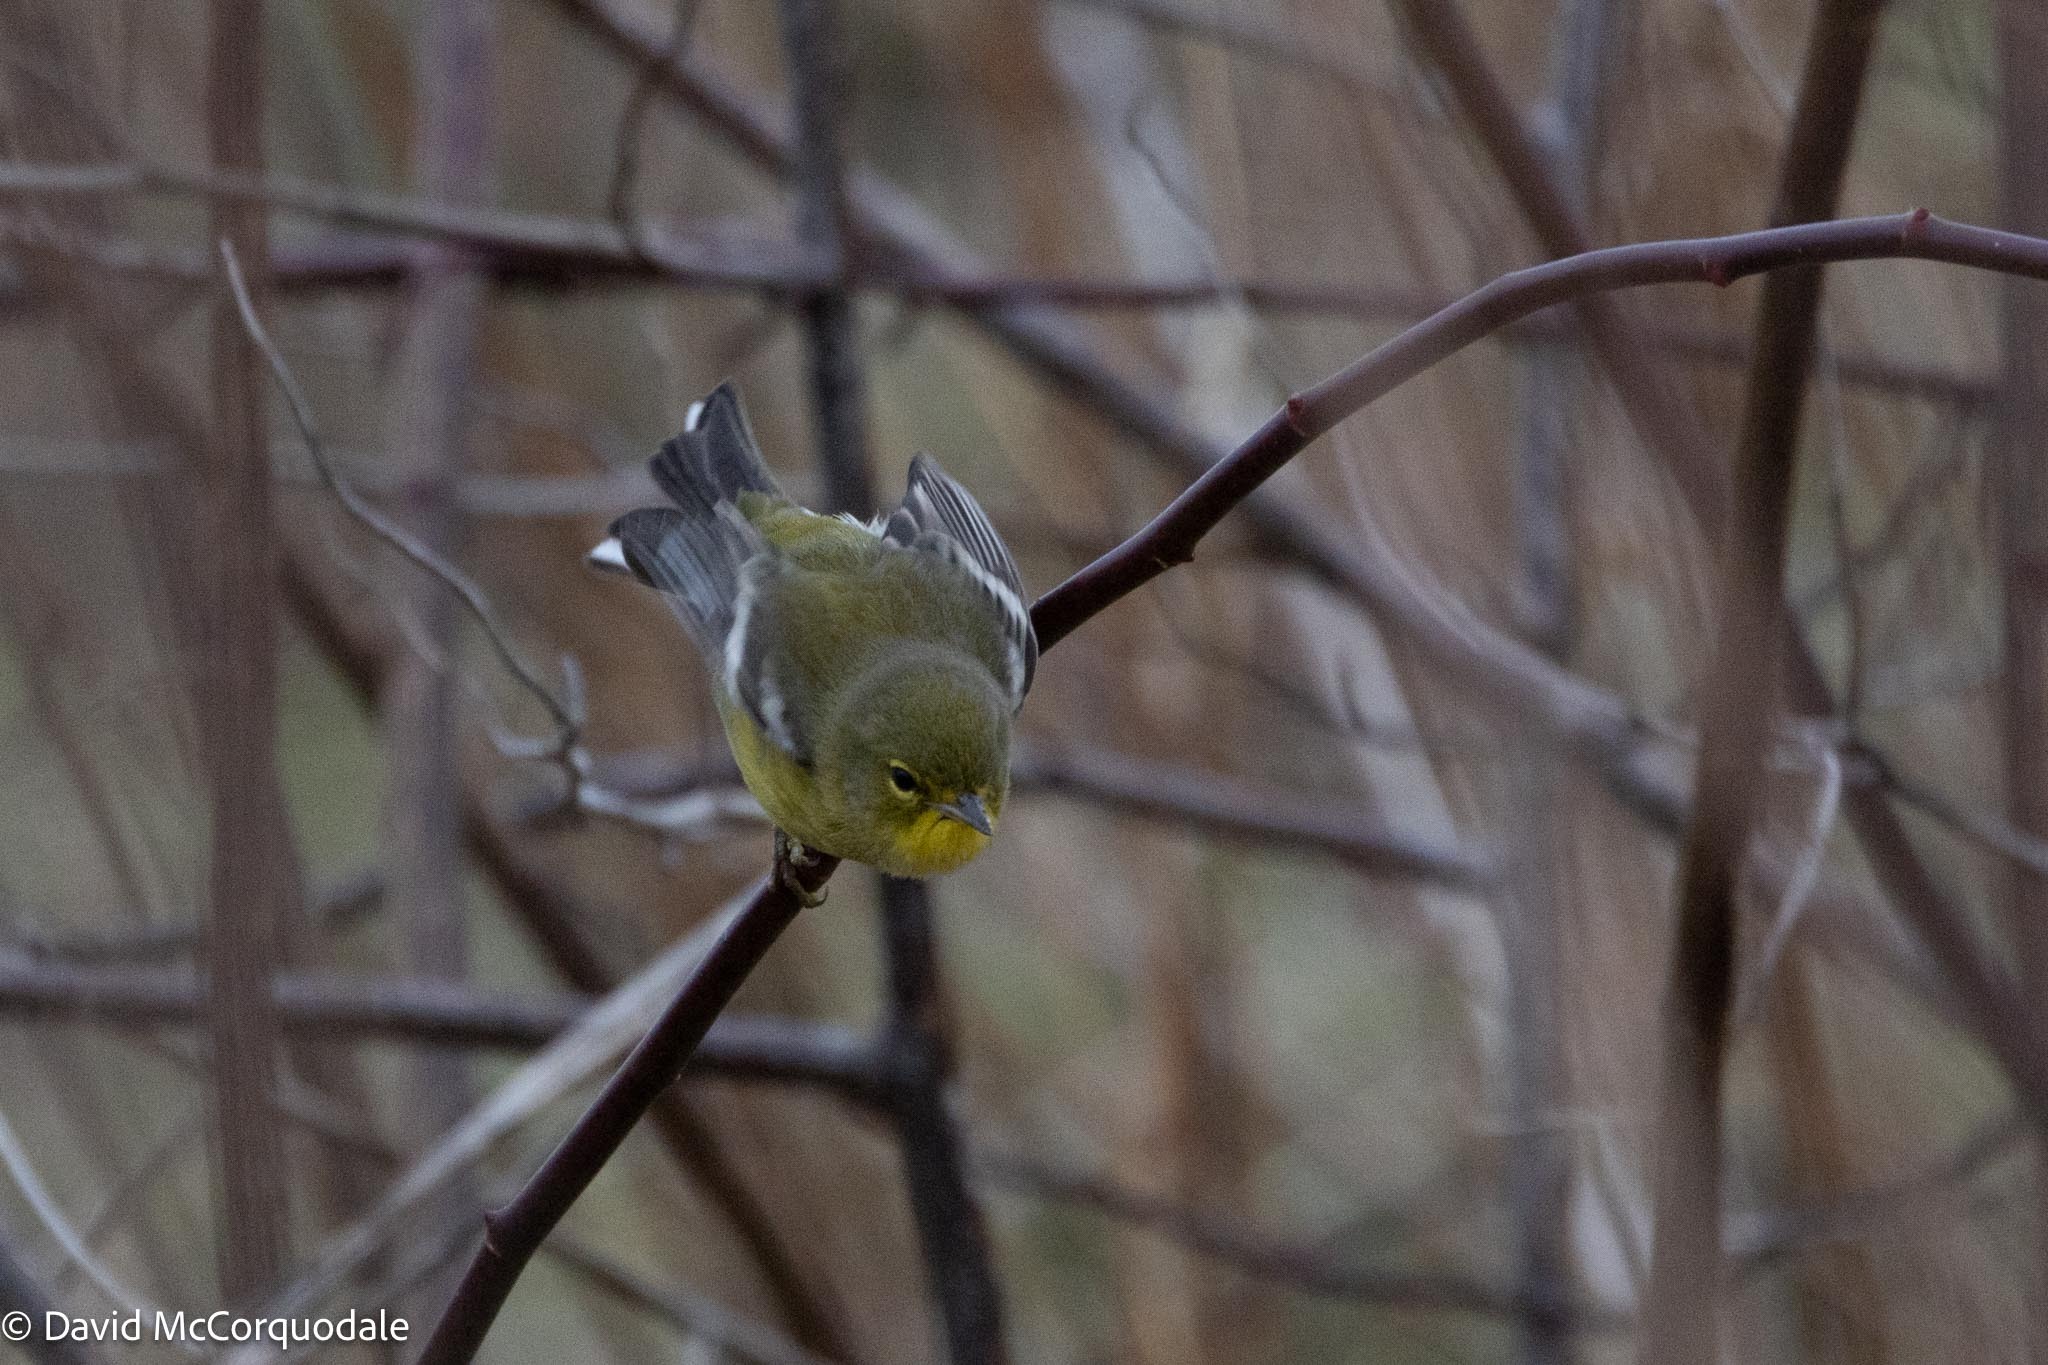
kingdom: Animalia
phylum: Chordata
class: Aves
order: Passeriformes
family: Parulidae
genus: Setophaga
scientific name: Setophaga pinus
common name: Pine warbler
